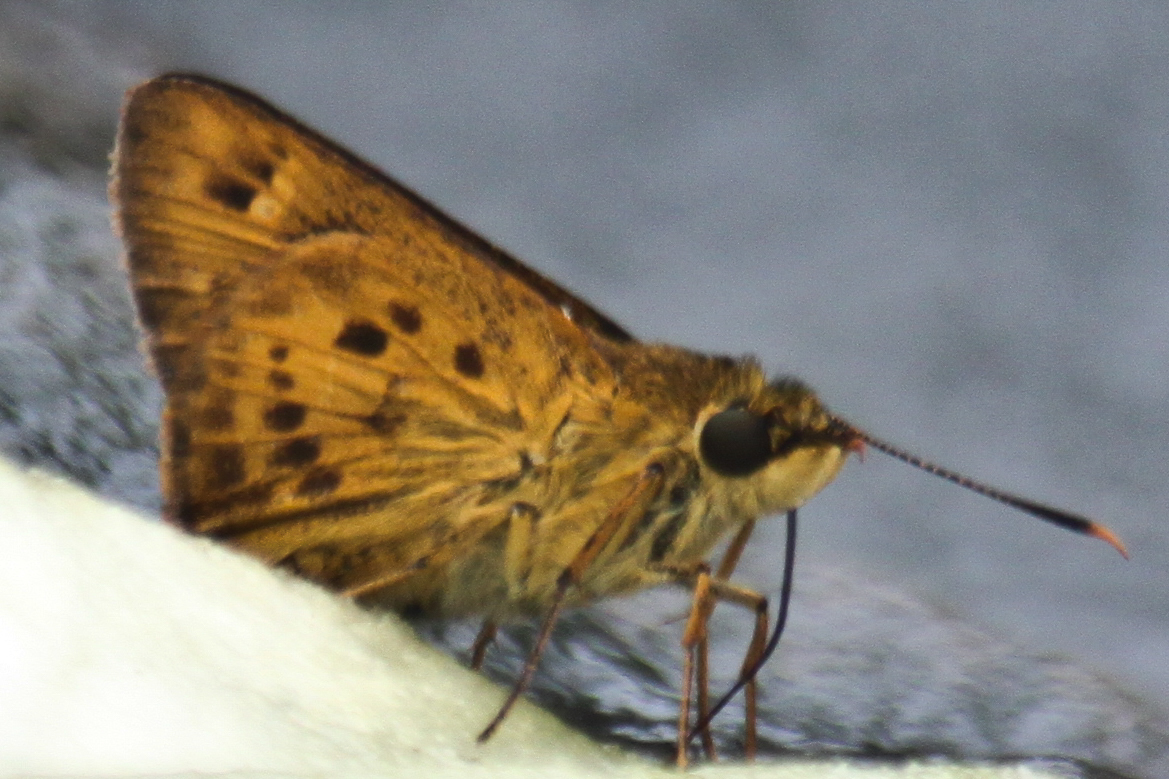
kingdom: Animalia
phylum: Arthropoda
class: Insecta
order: Lepidoptera
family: Hesperiidae
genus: Thoressa
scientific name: Thoressa masoni
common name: Golden ace
